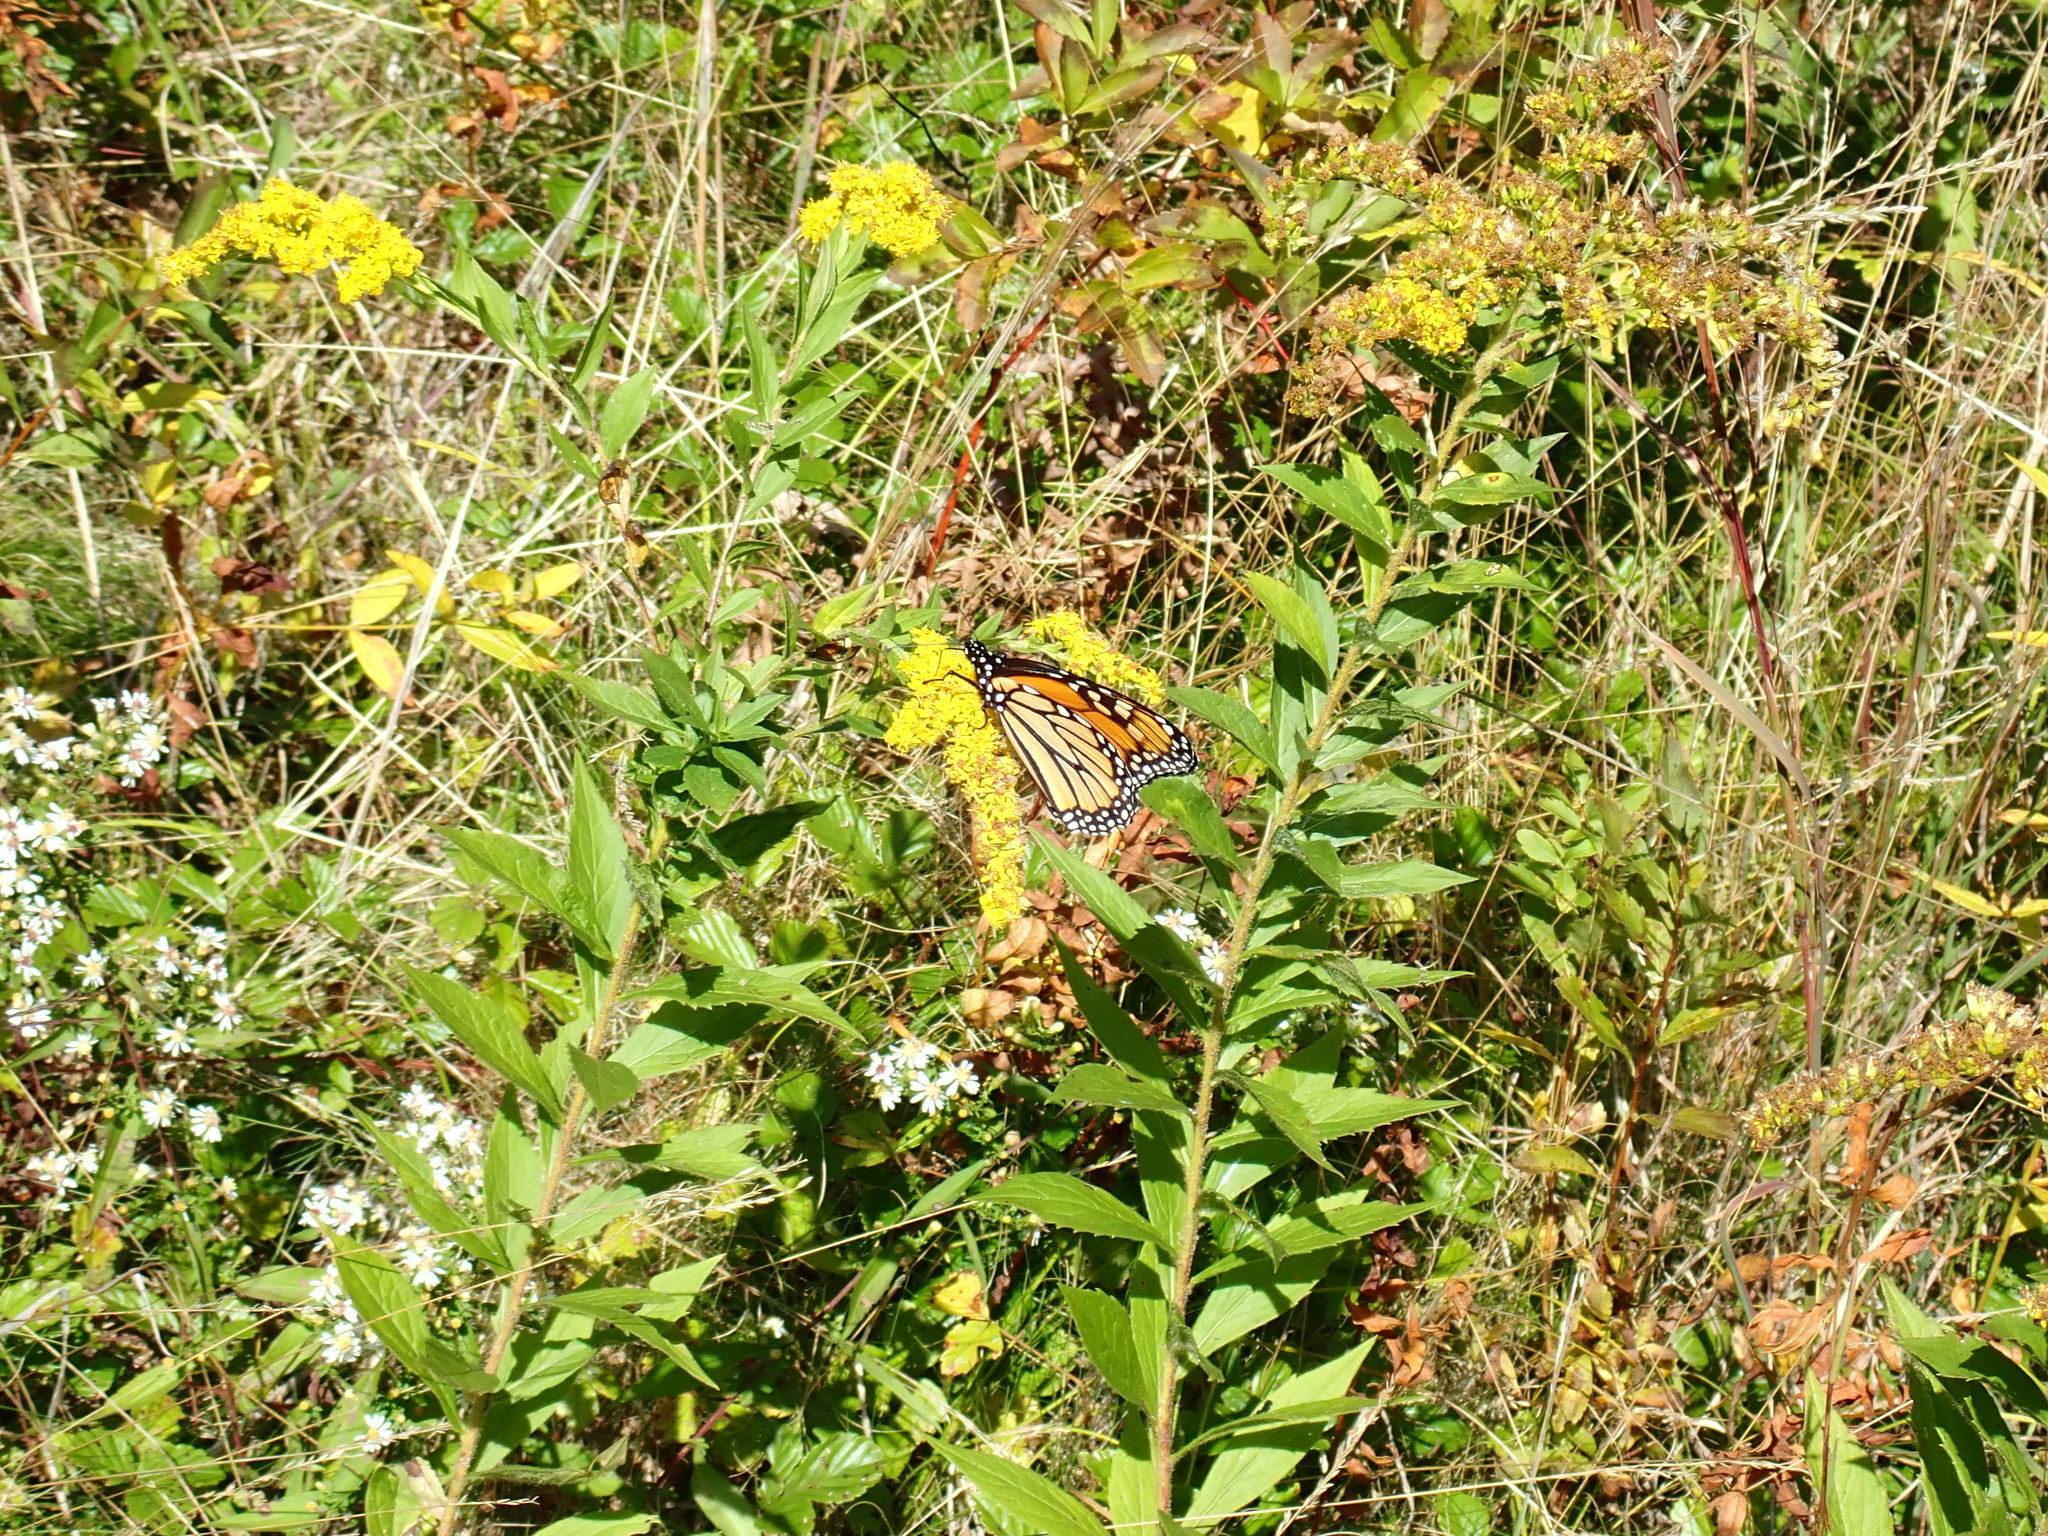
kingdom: Animalia
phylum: Arthropoda
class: Insecta
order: Lepidoptera
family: Nymphalidae
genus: Danaus
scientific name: Danaus plexippus
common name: Monarch
